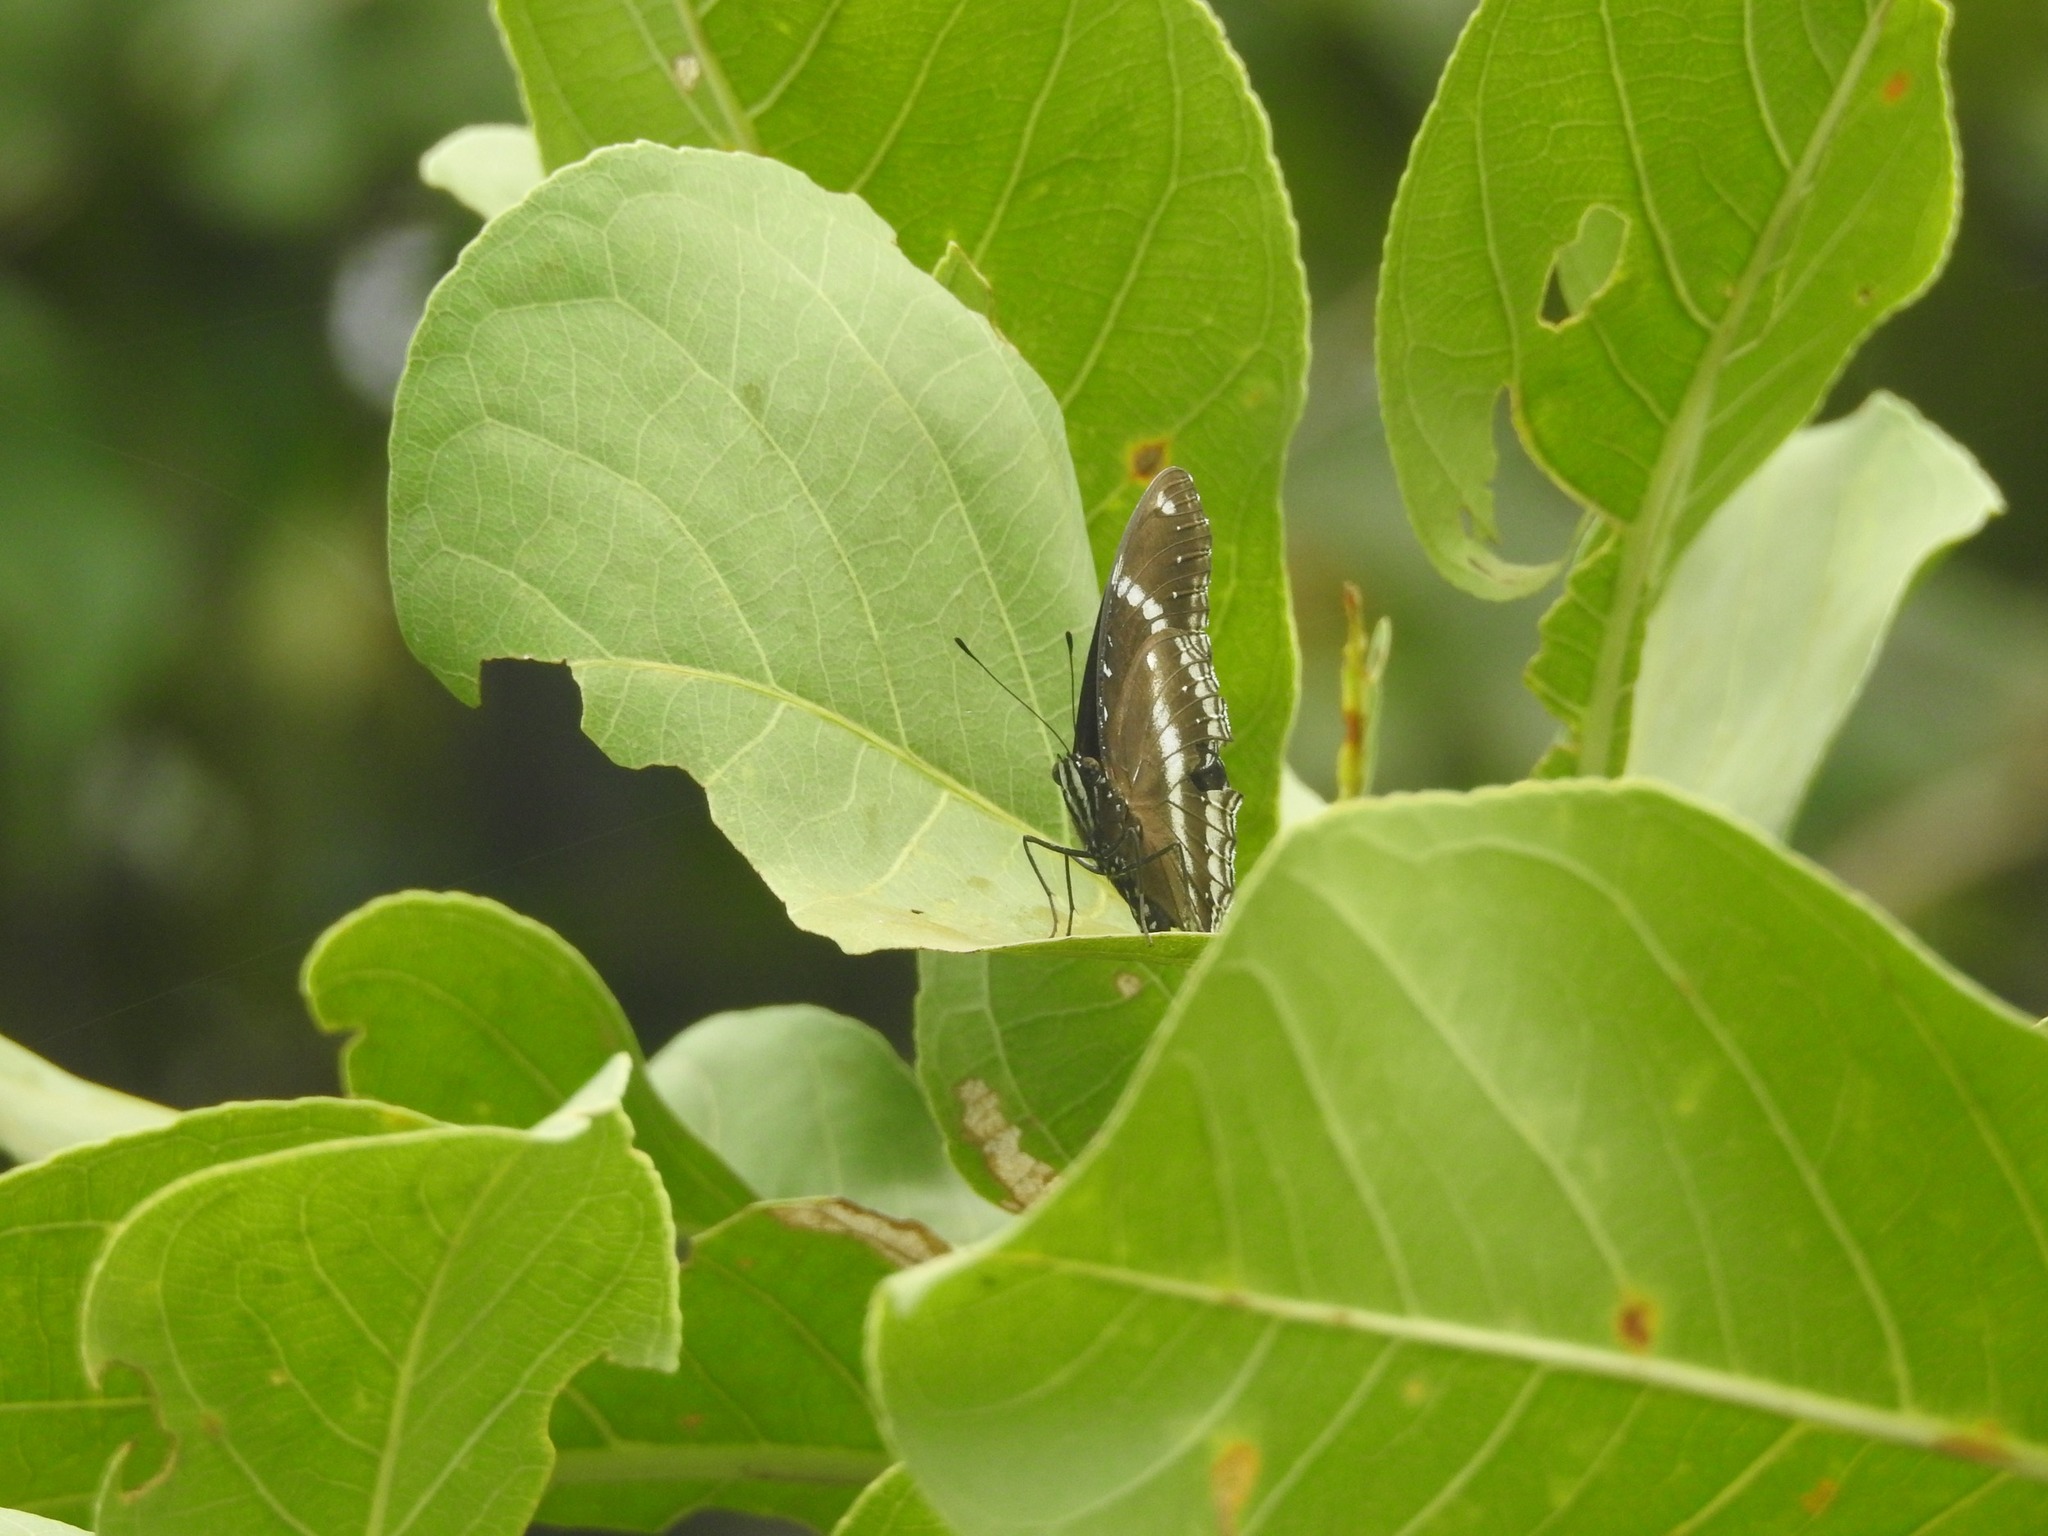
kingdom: Animalia
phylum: Arthropoda
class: Insecta
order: Lepidoptera
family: Nymphalidae
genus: Hypolimnas
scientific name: Hypolimnas bolina
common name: Great eggfly
